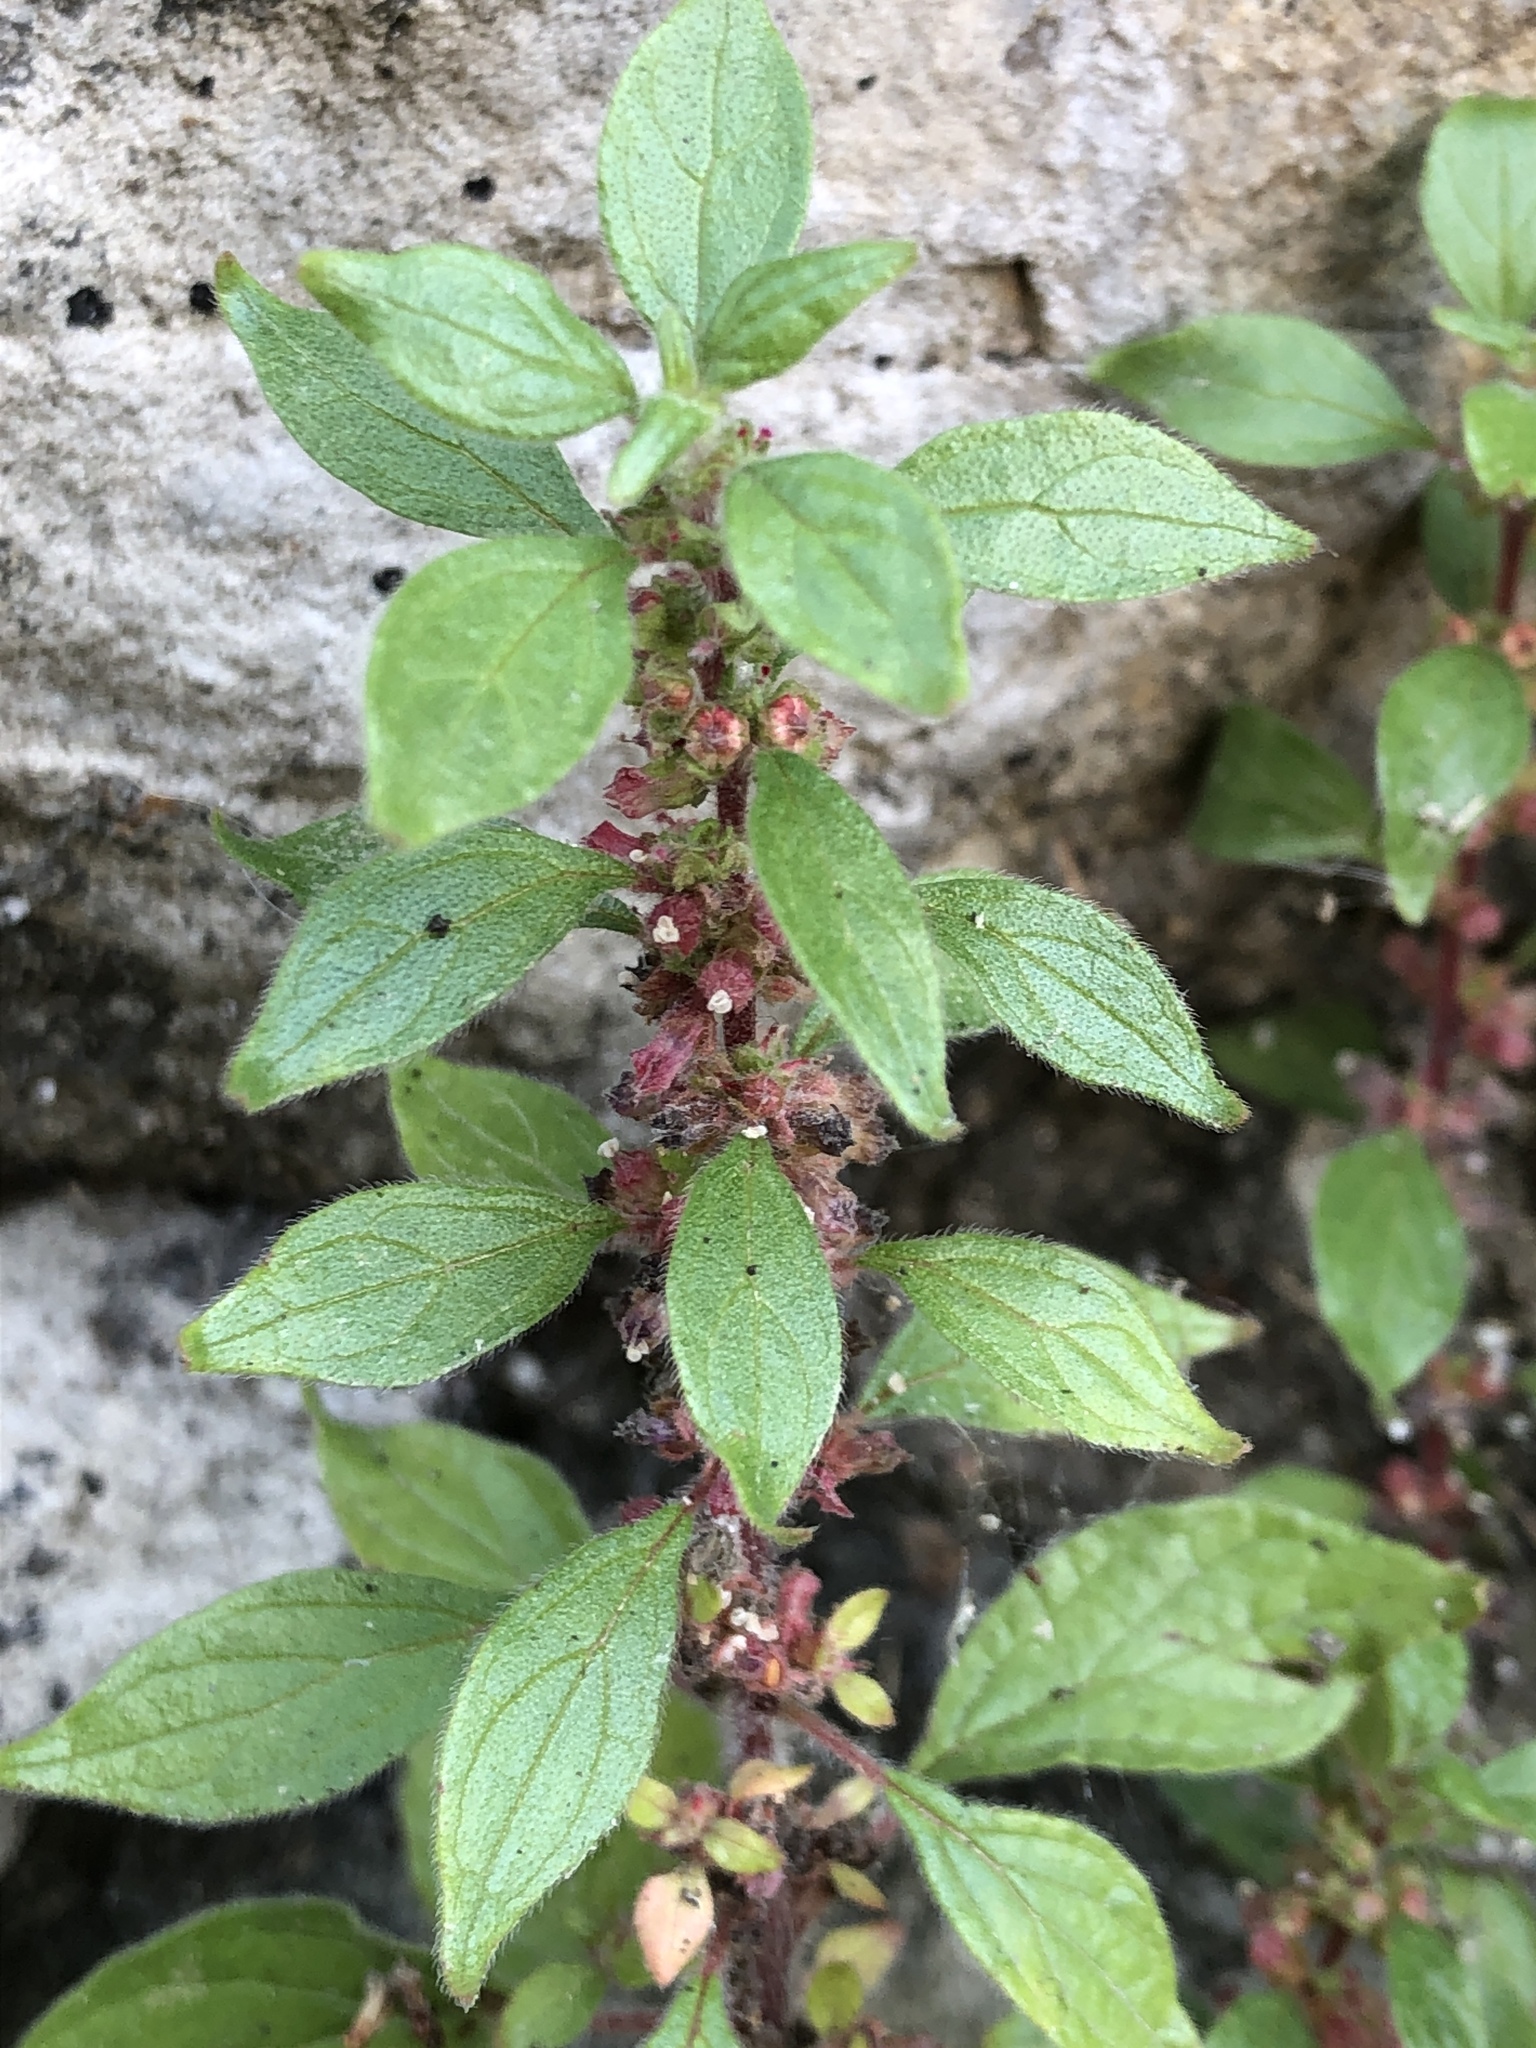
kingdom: Plantae
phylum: Tracheophyta
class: Magnoliopsida
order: Rosales
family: Urticaceae
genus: Parietaria
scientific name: Parietaria judaica
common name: Pellitory-of-the-wall
